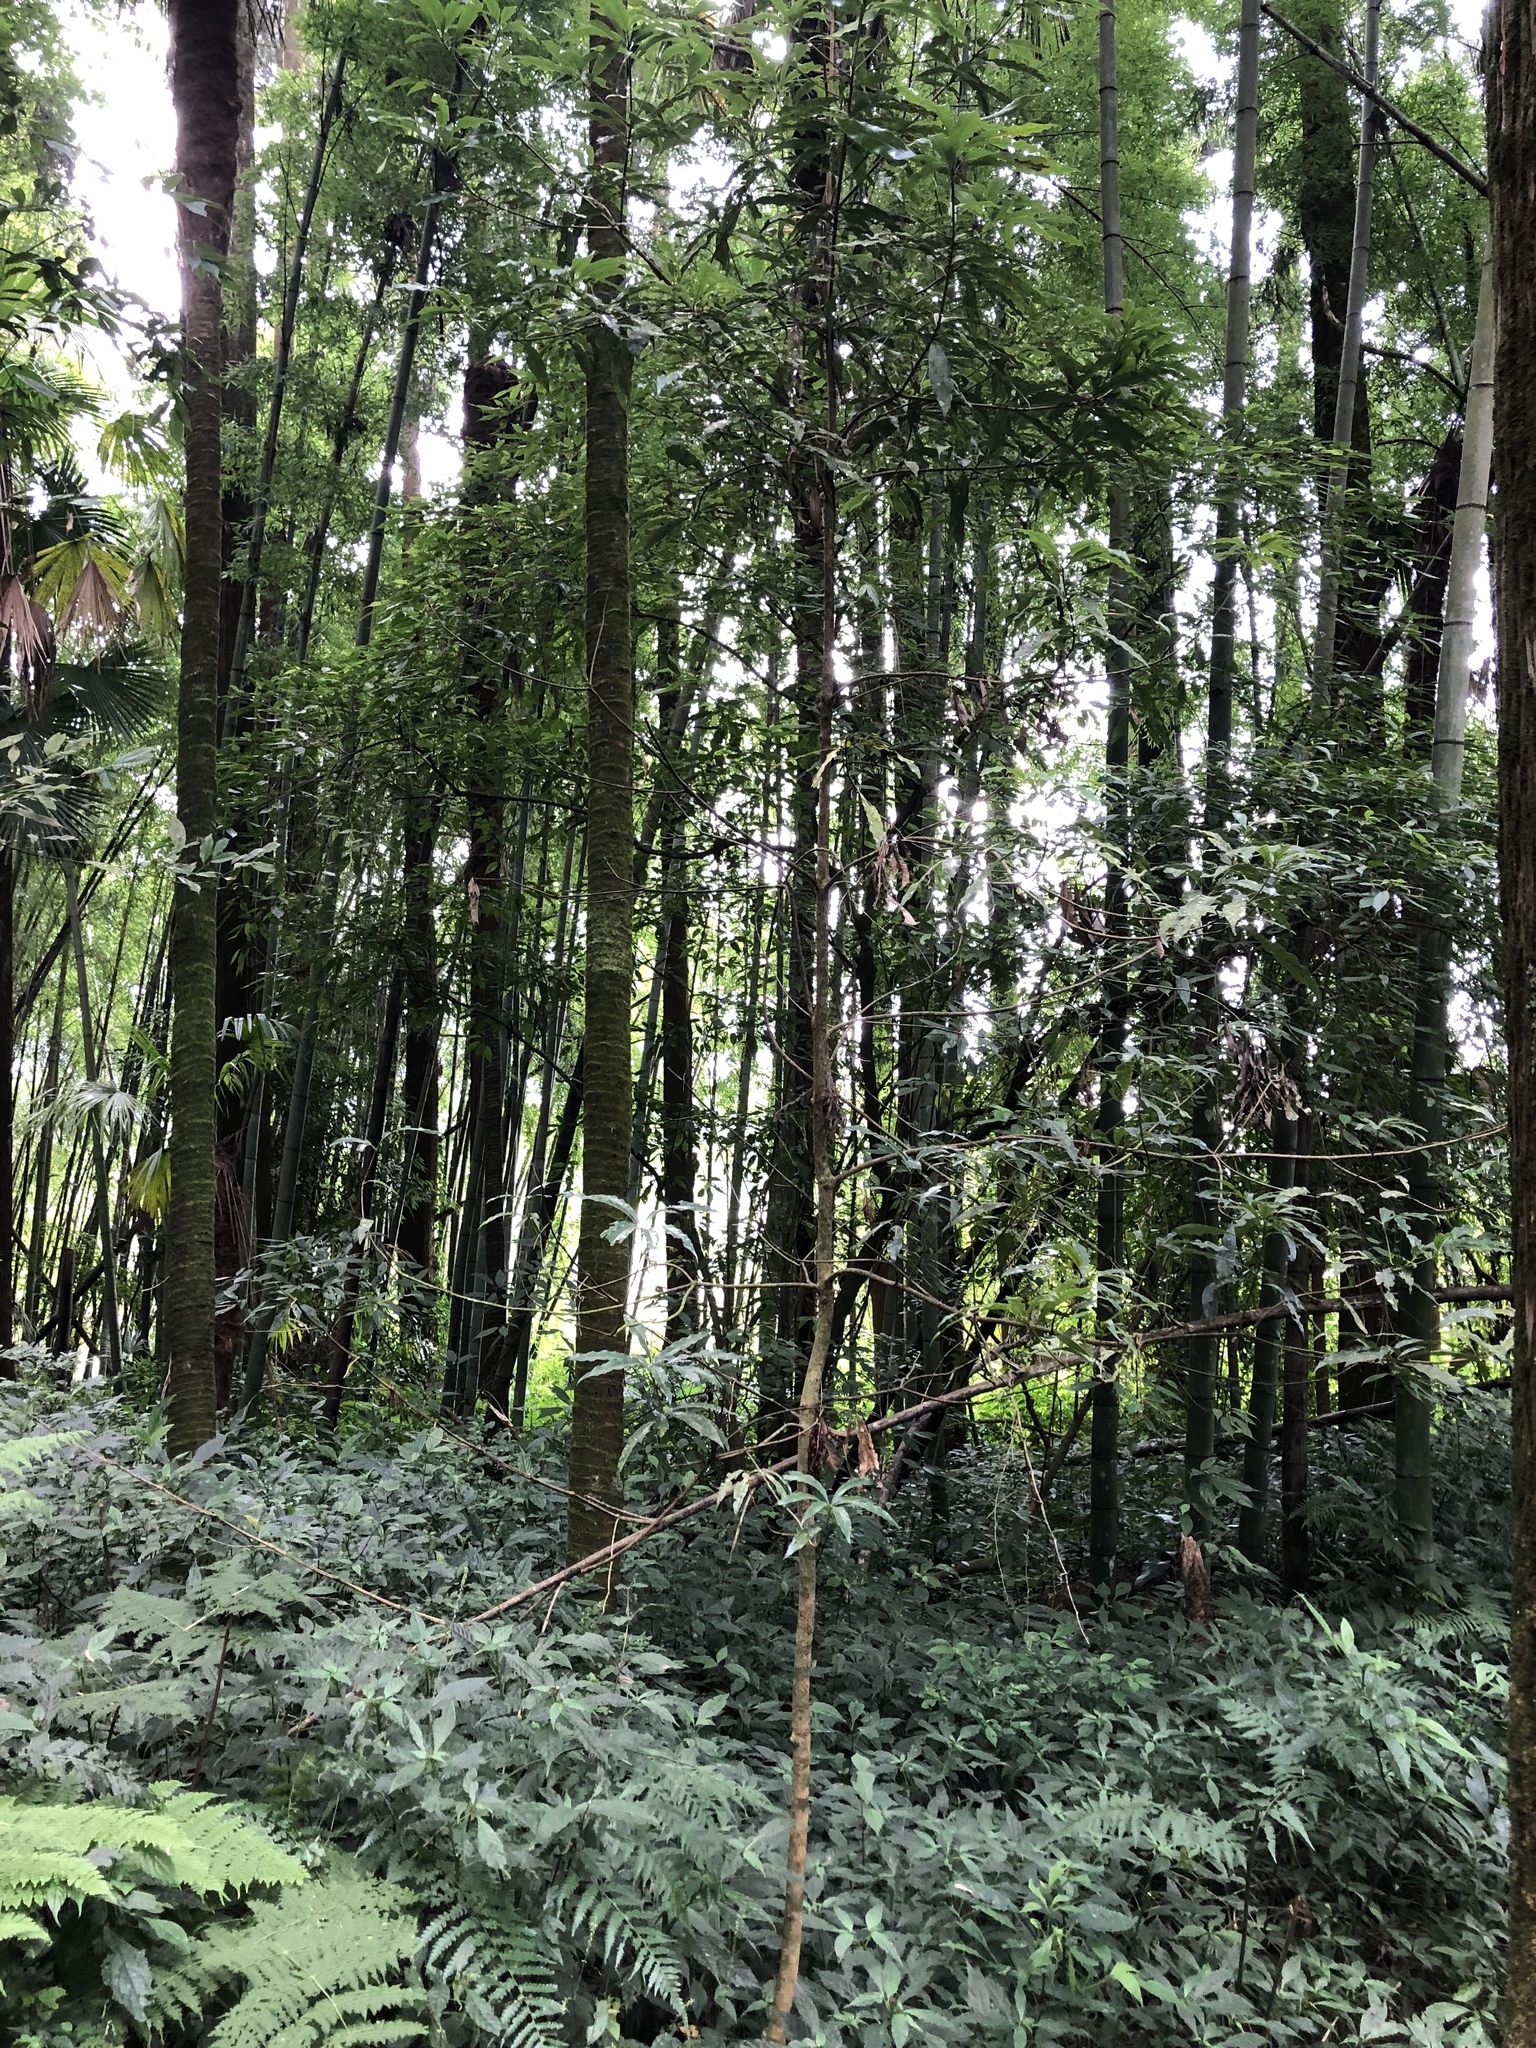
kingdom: Plantae
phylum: Tracheophyta
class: Magnoliopsida
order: Laurales
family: Lauraceae
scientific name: Lauraceae
